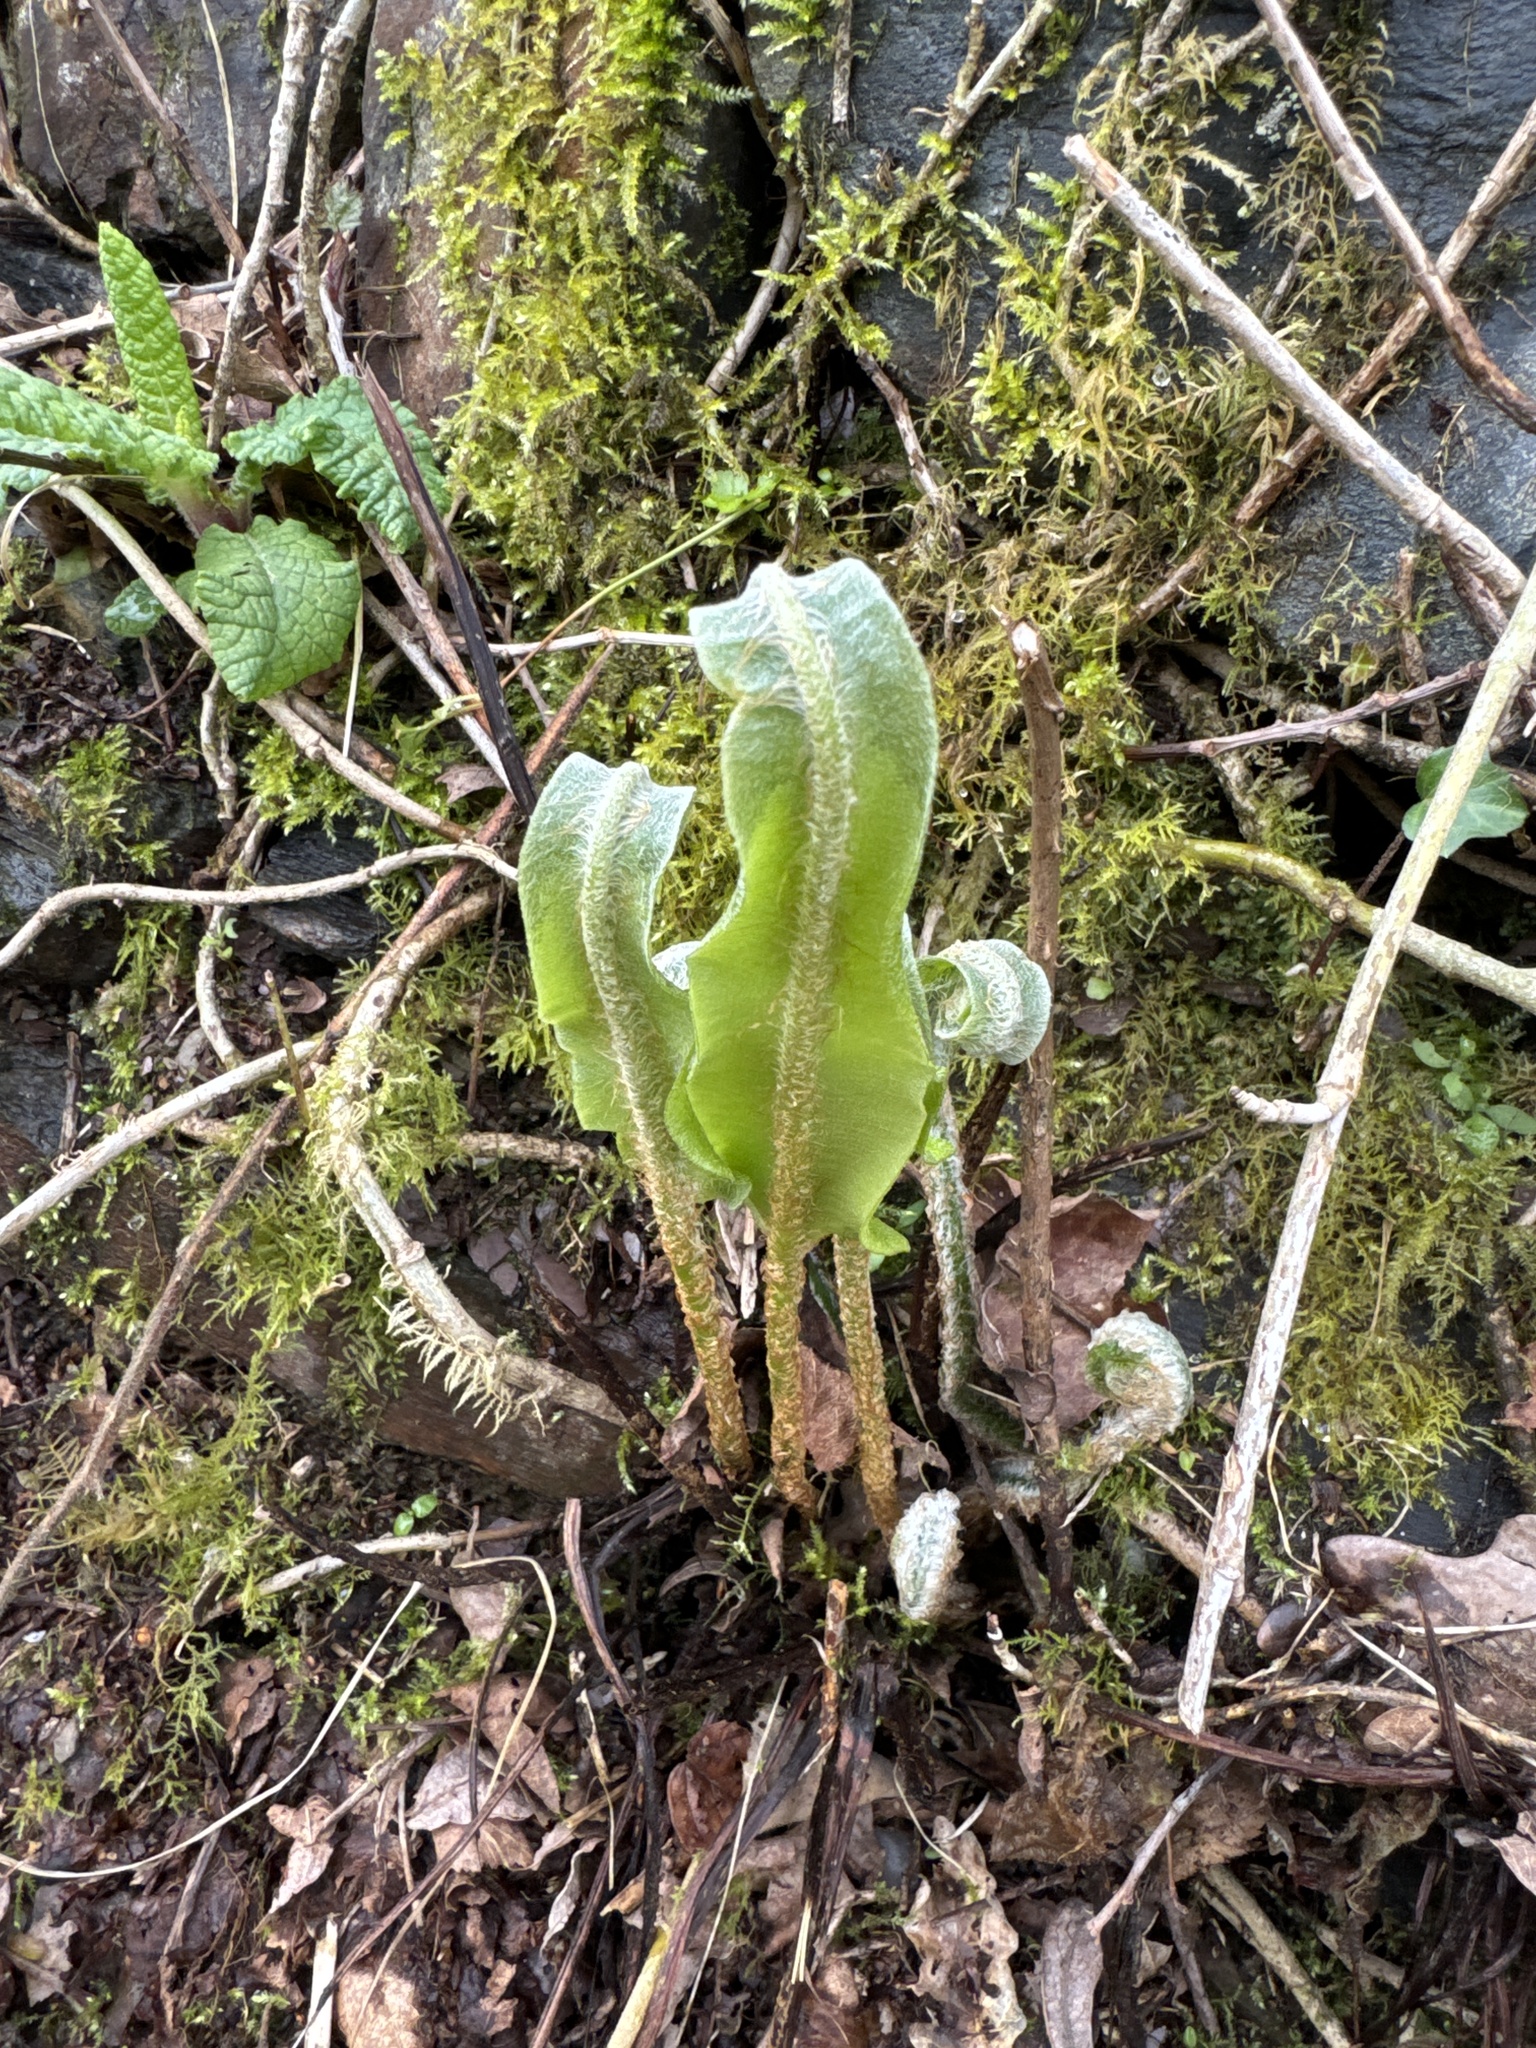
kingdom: Plantae
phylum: Tracheophyta
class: Polypodiopsida
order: Polypodiales
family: Aspleniaceae
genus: Asplenium
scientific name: Asplenium scolopendrium
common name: Hart's-tongue fern
